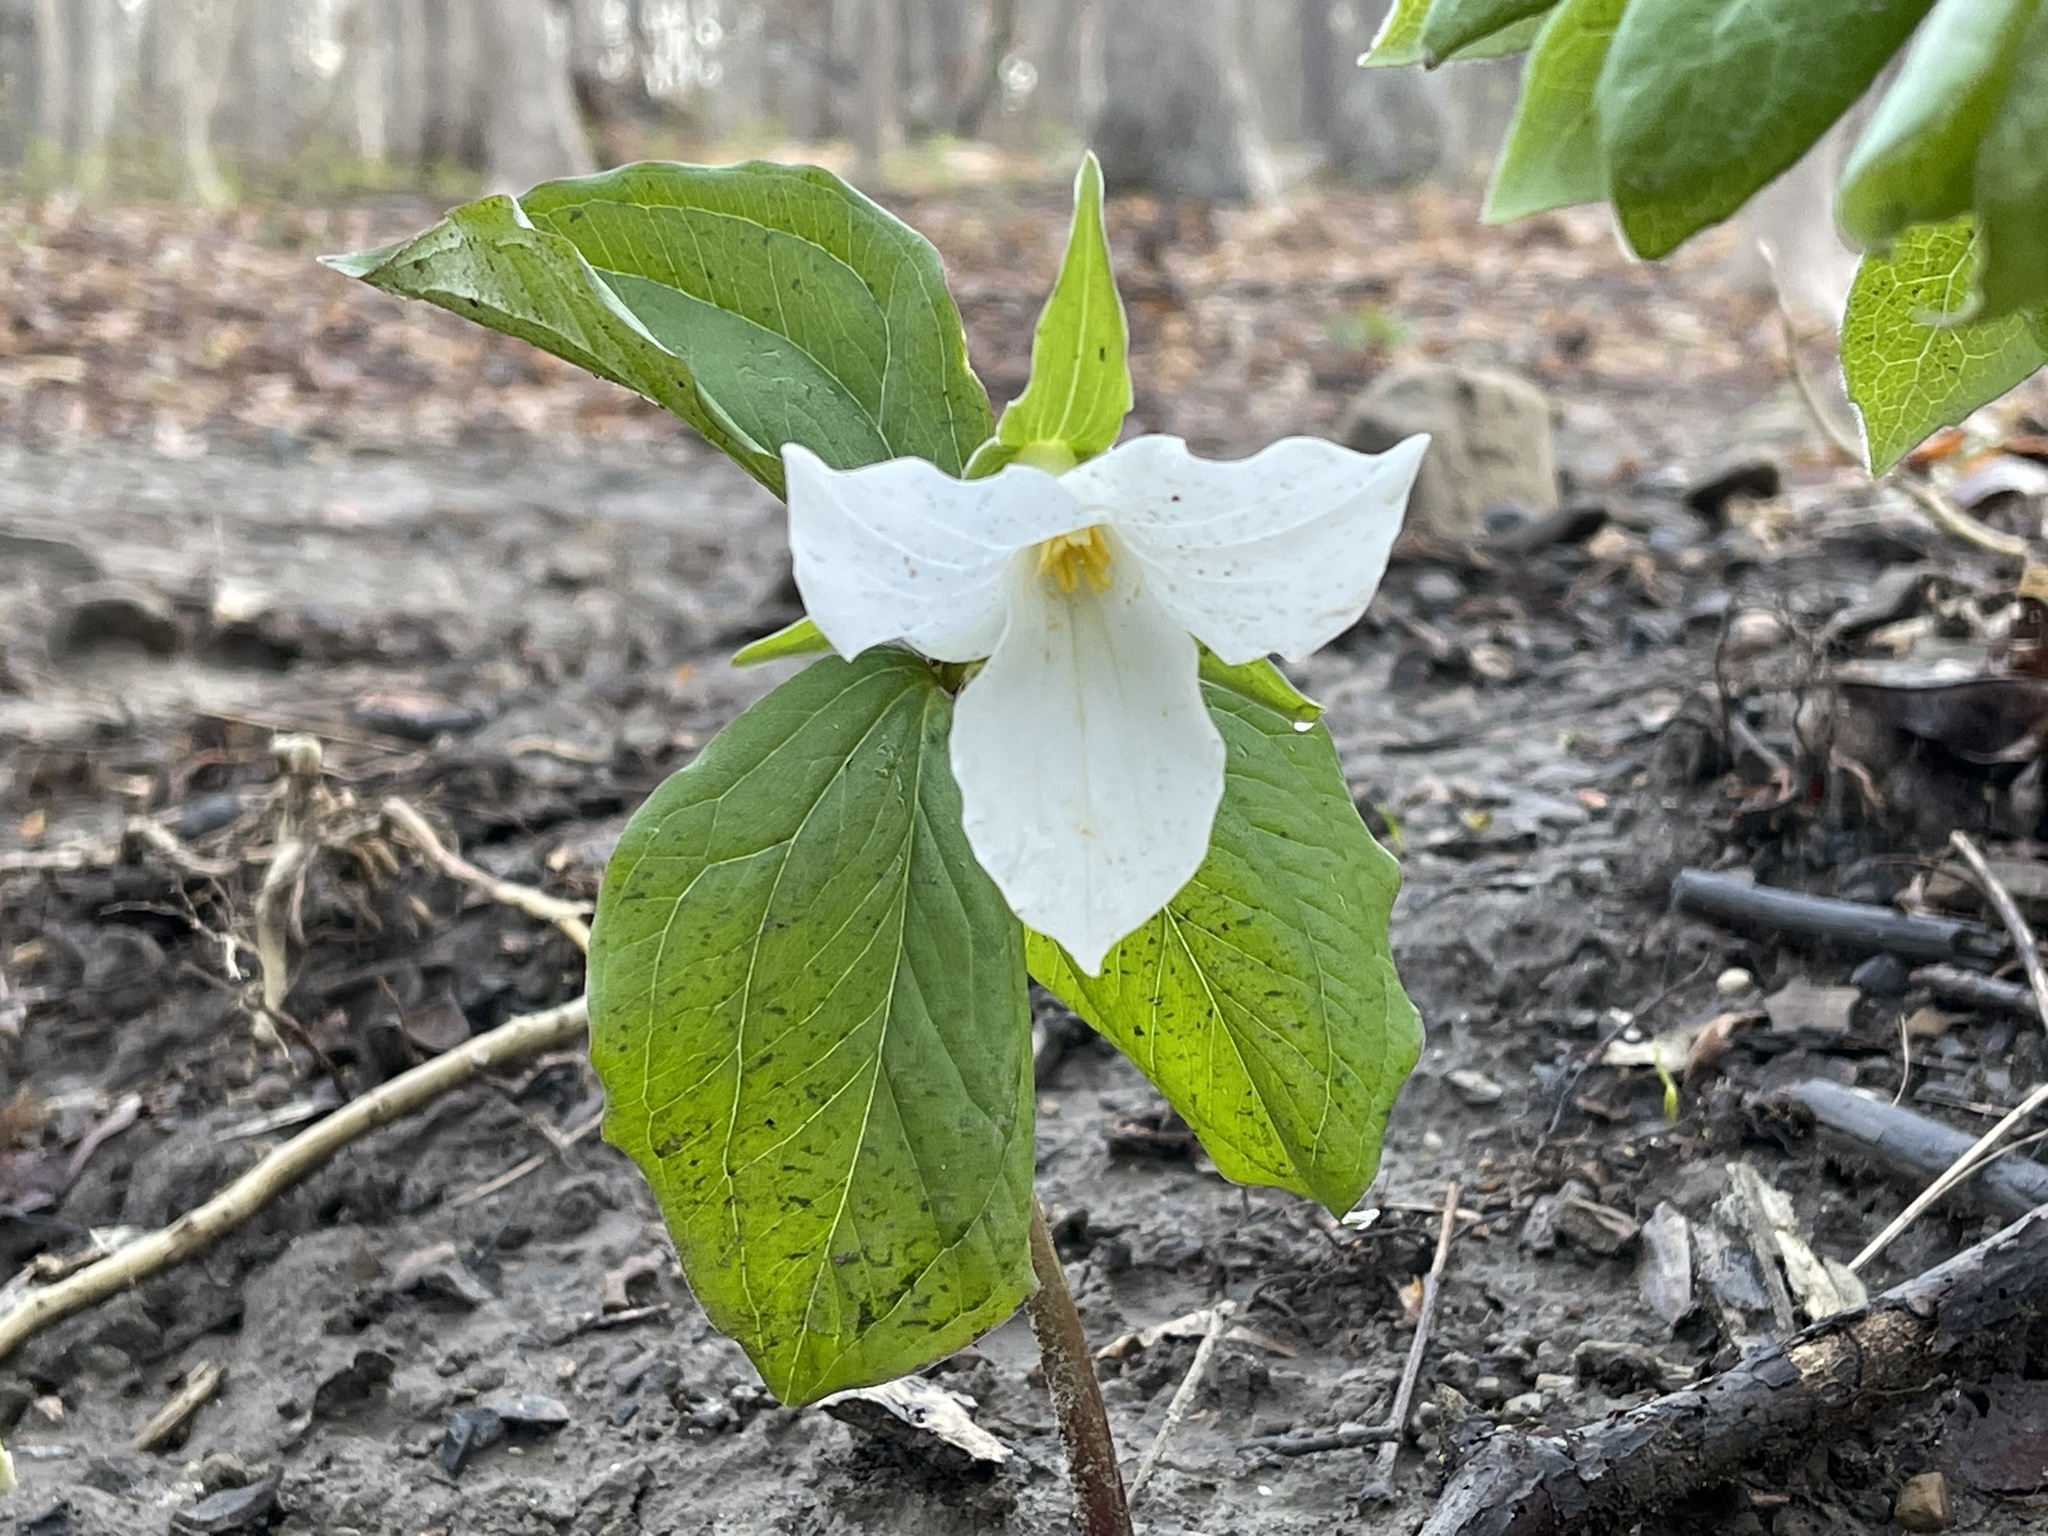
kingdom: Plantae
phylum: Tracheophyta
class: Liliopsida
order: Liliales
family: Melanthiaceae
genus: Trillium
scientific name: Trillium grandiflorum
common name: Great white trillium
